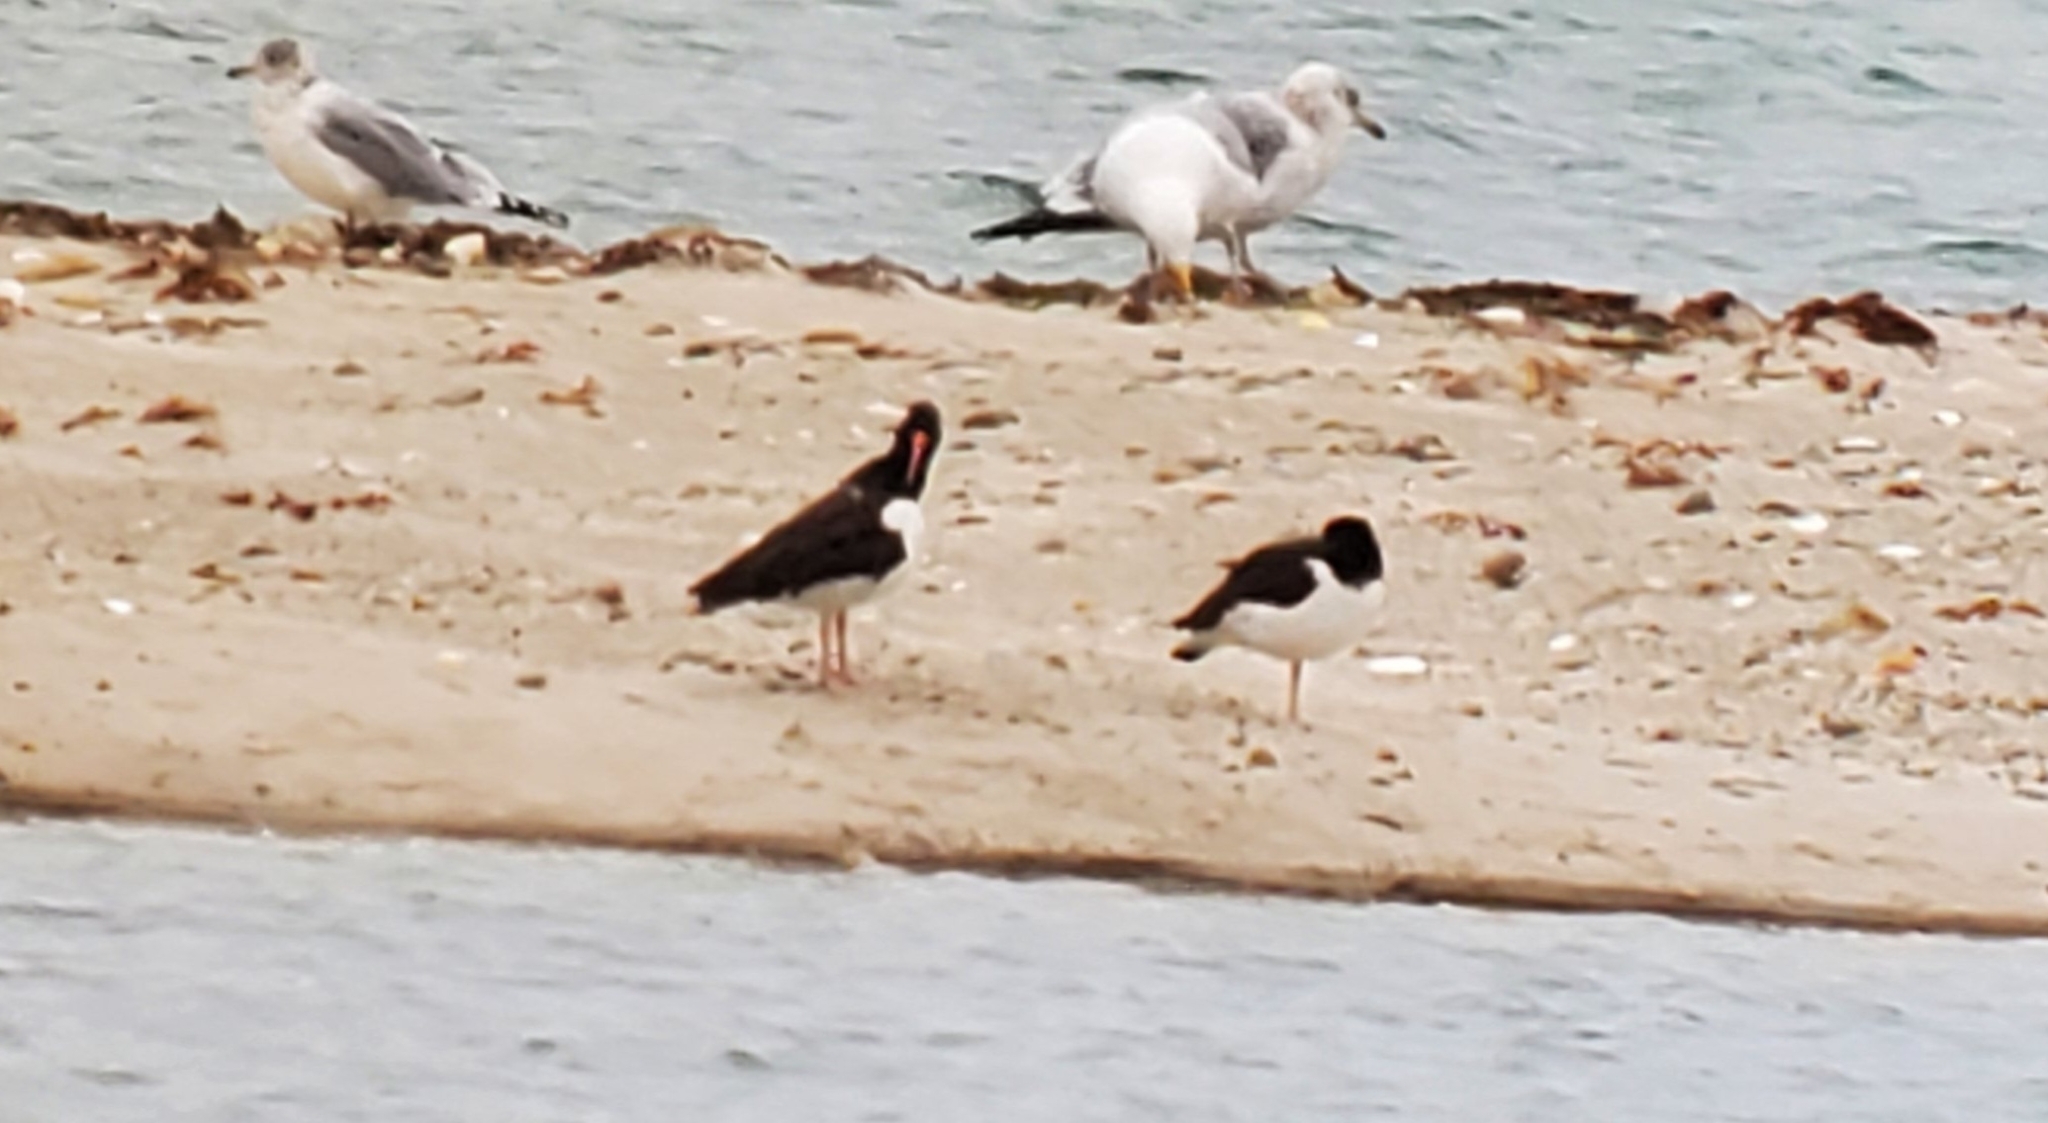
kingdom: Animalia
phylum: Chordata
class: Aves
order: Charadriiformes
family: Haematopodidae
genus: Haematopus
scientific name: Haematopus palliatus
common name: American oystercatcher
